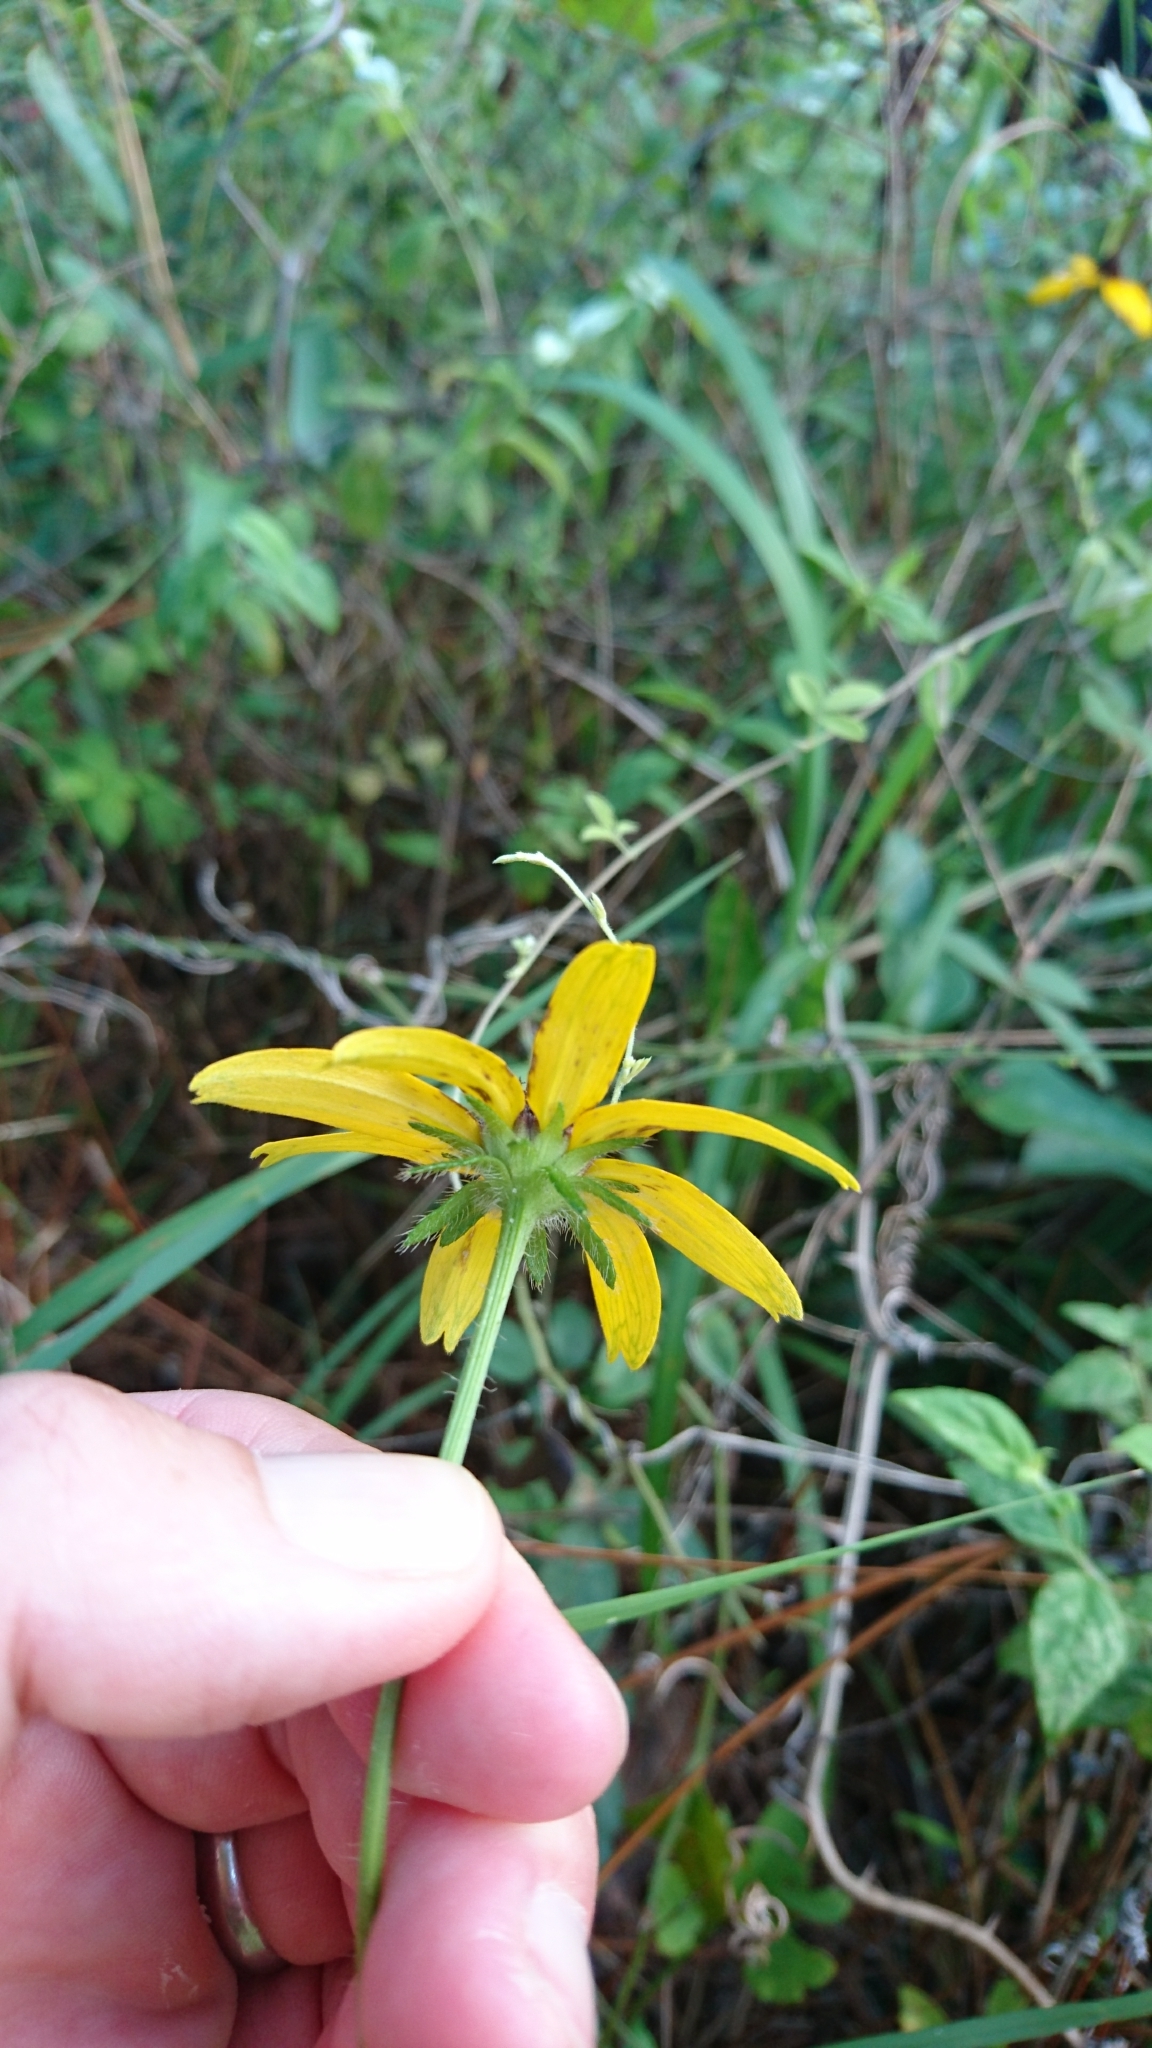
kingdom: Plantae
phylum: Tracheophyta
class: Magnoliopsida
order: Asterales
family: Asteraceae
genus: Rudbeckia
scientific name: Rudbeckia hirta
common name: Black-eyed-susan
